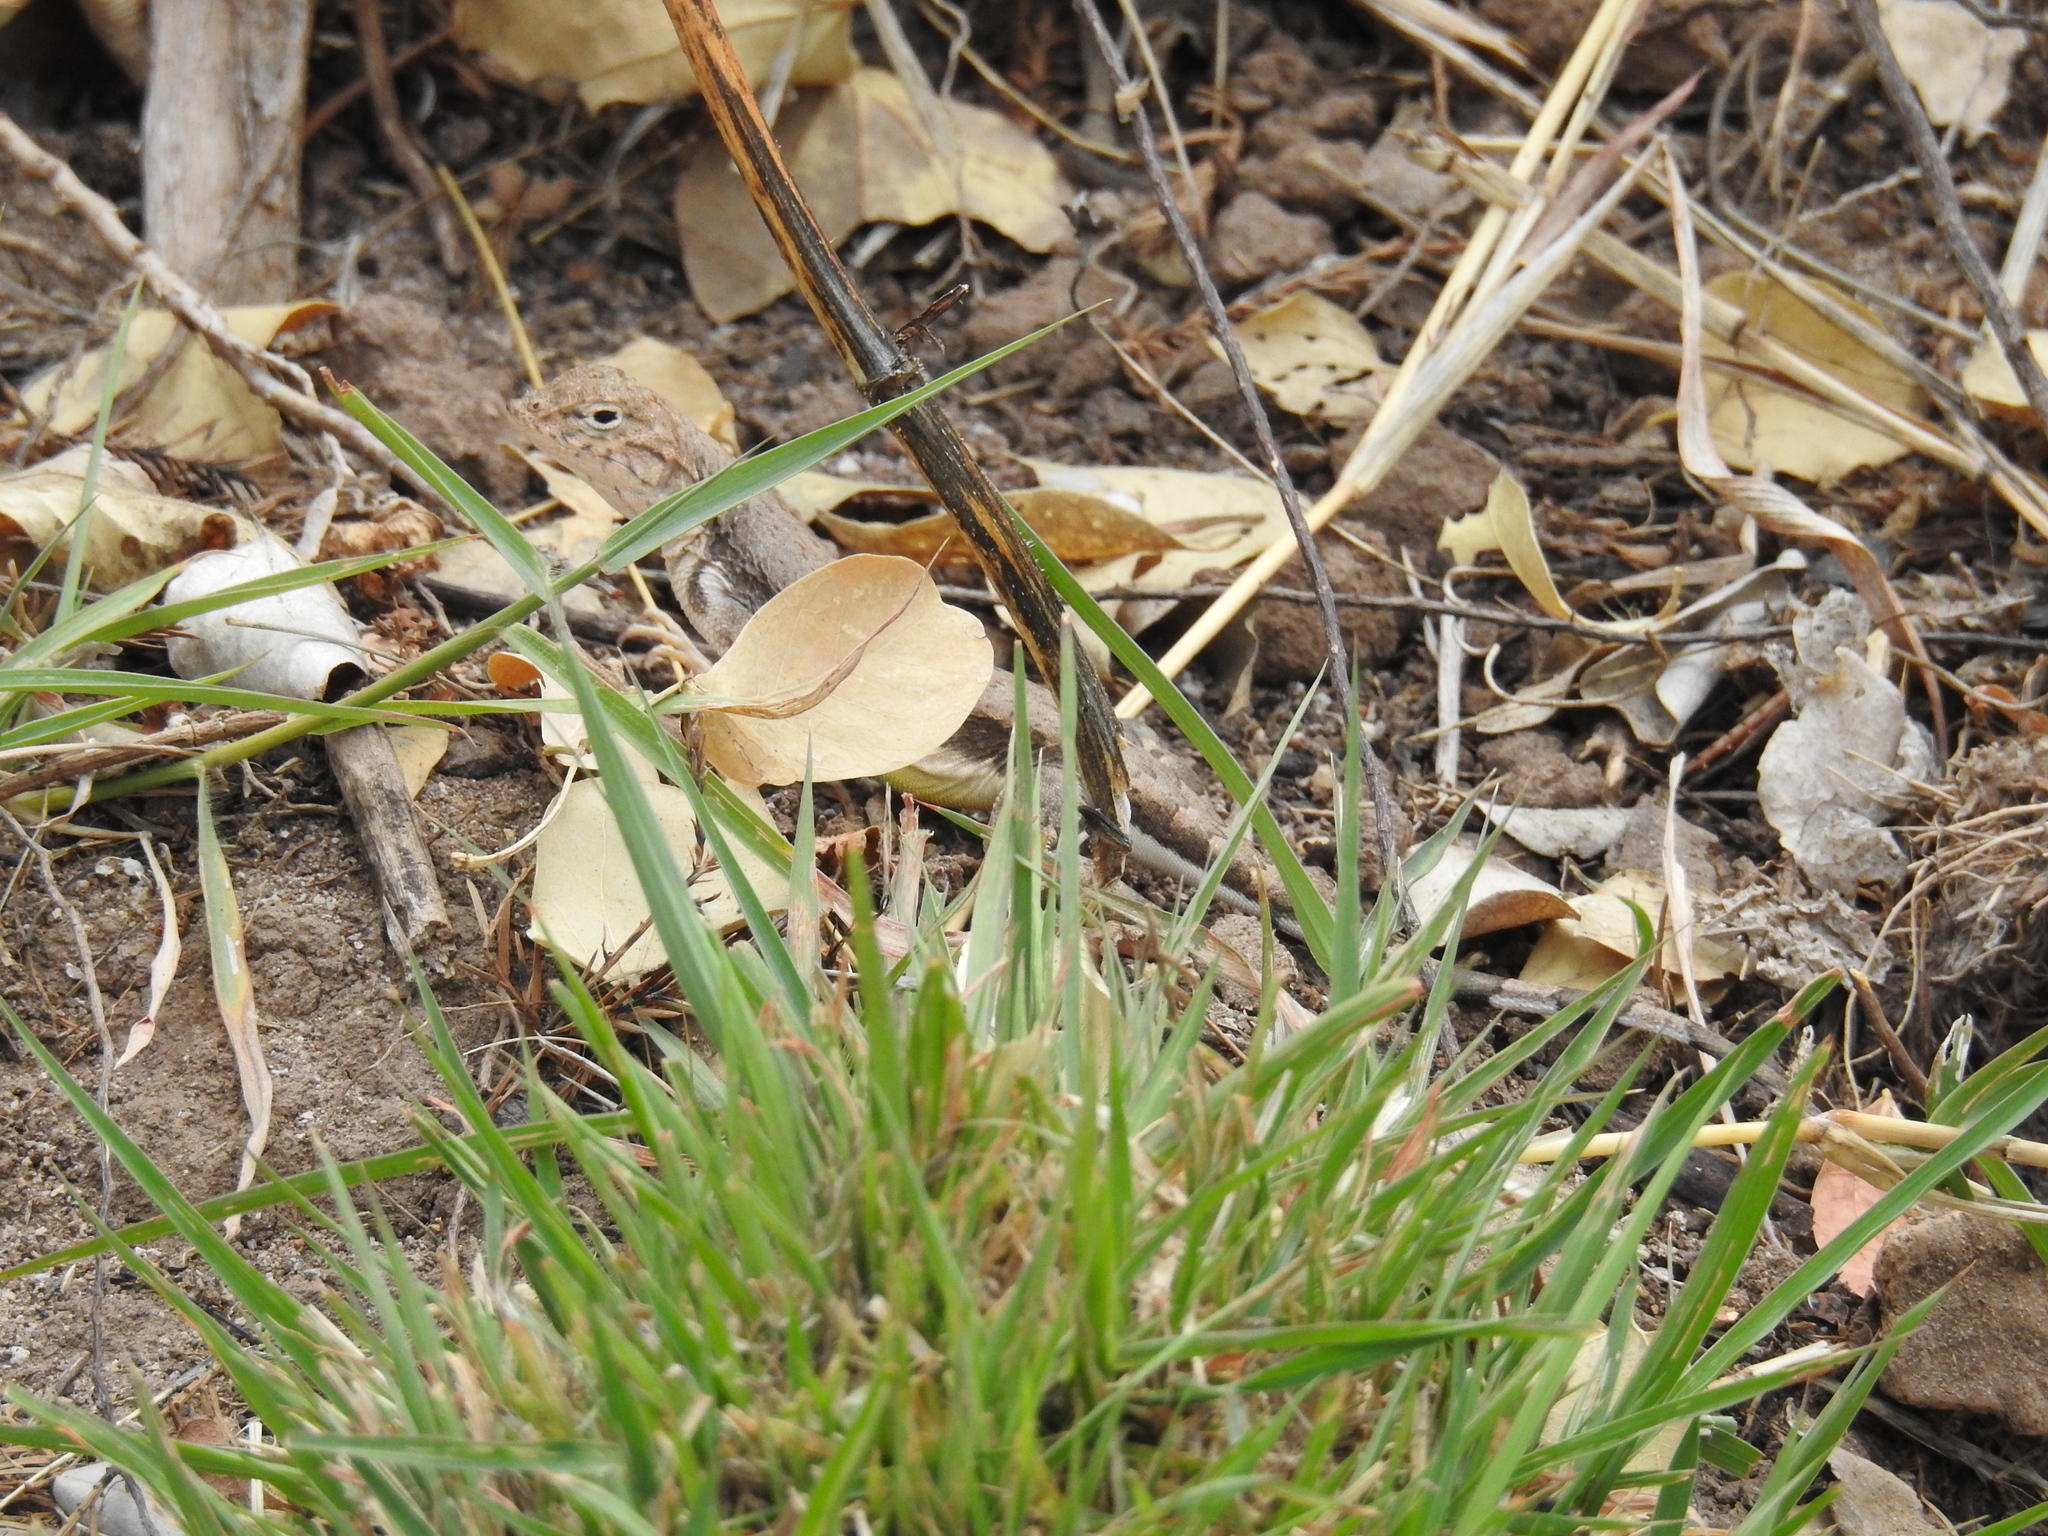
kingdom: Animalia
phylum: Chordata
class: Squamata
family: Phrynosomatidae
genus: Callisaurus
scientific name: Callisaurus draconoides
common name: Zebra-tailed lizard
